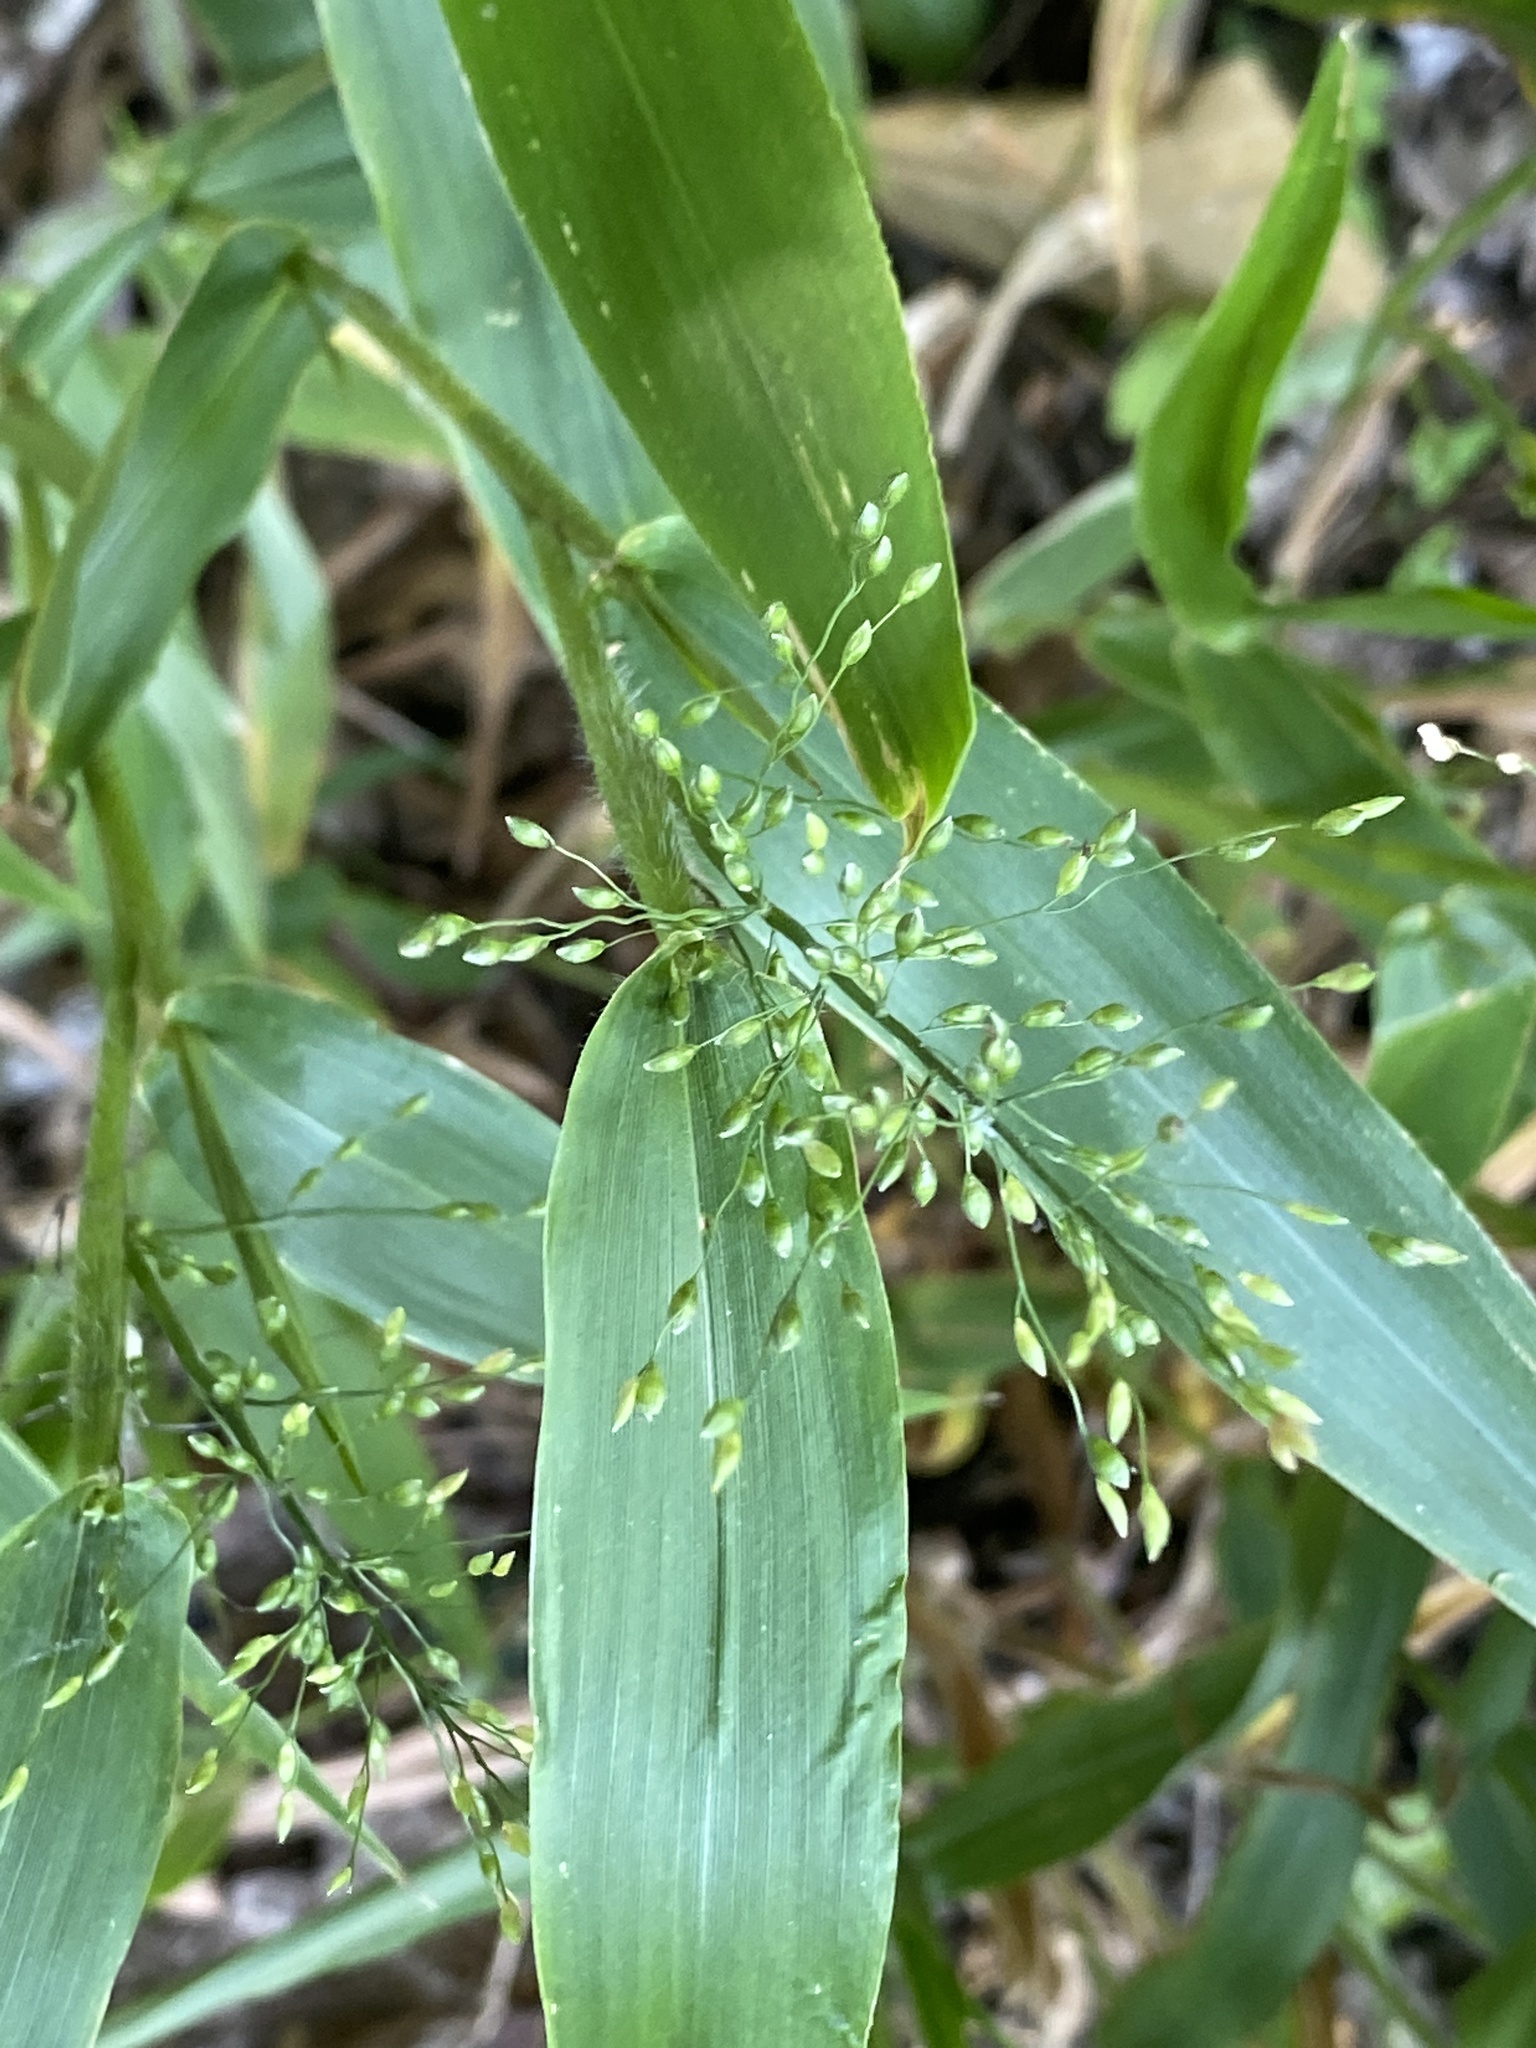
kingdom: Plantae
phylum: Tracheophyta
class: Liliopsida
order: Poales
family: Poaceae
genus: Dichanthelium
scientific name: Dichanthelium clandestinum
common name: Deer-tongue grass
